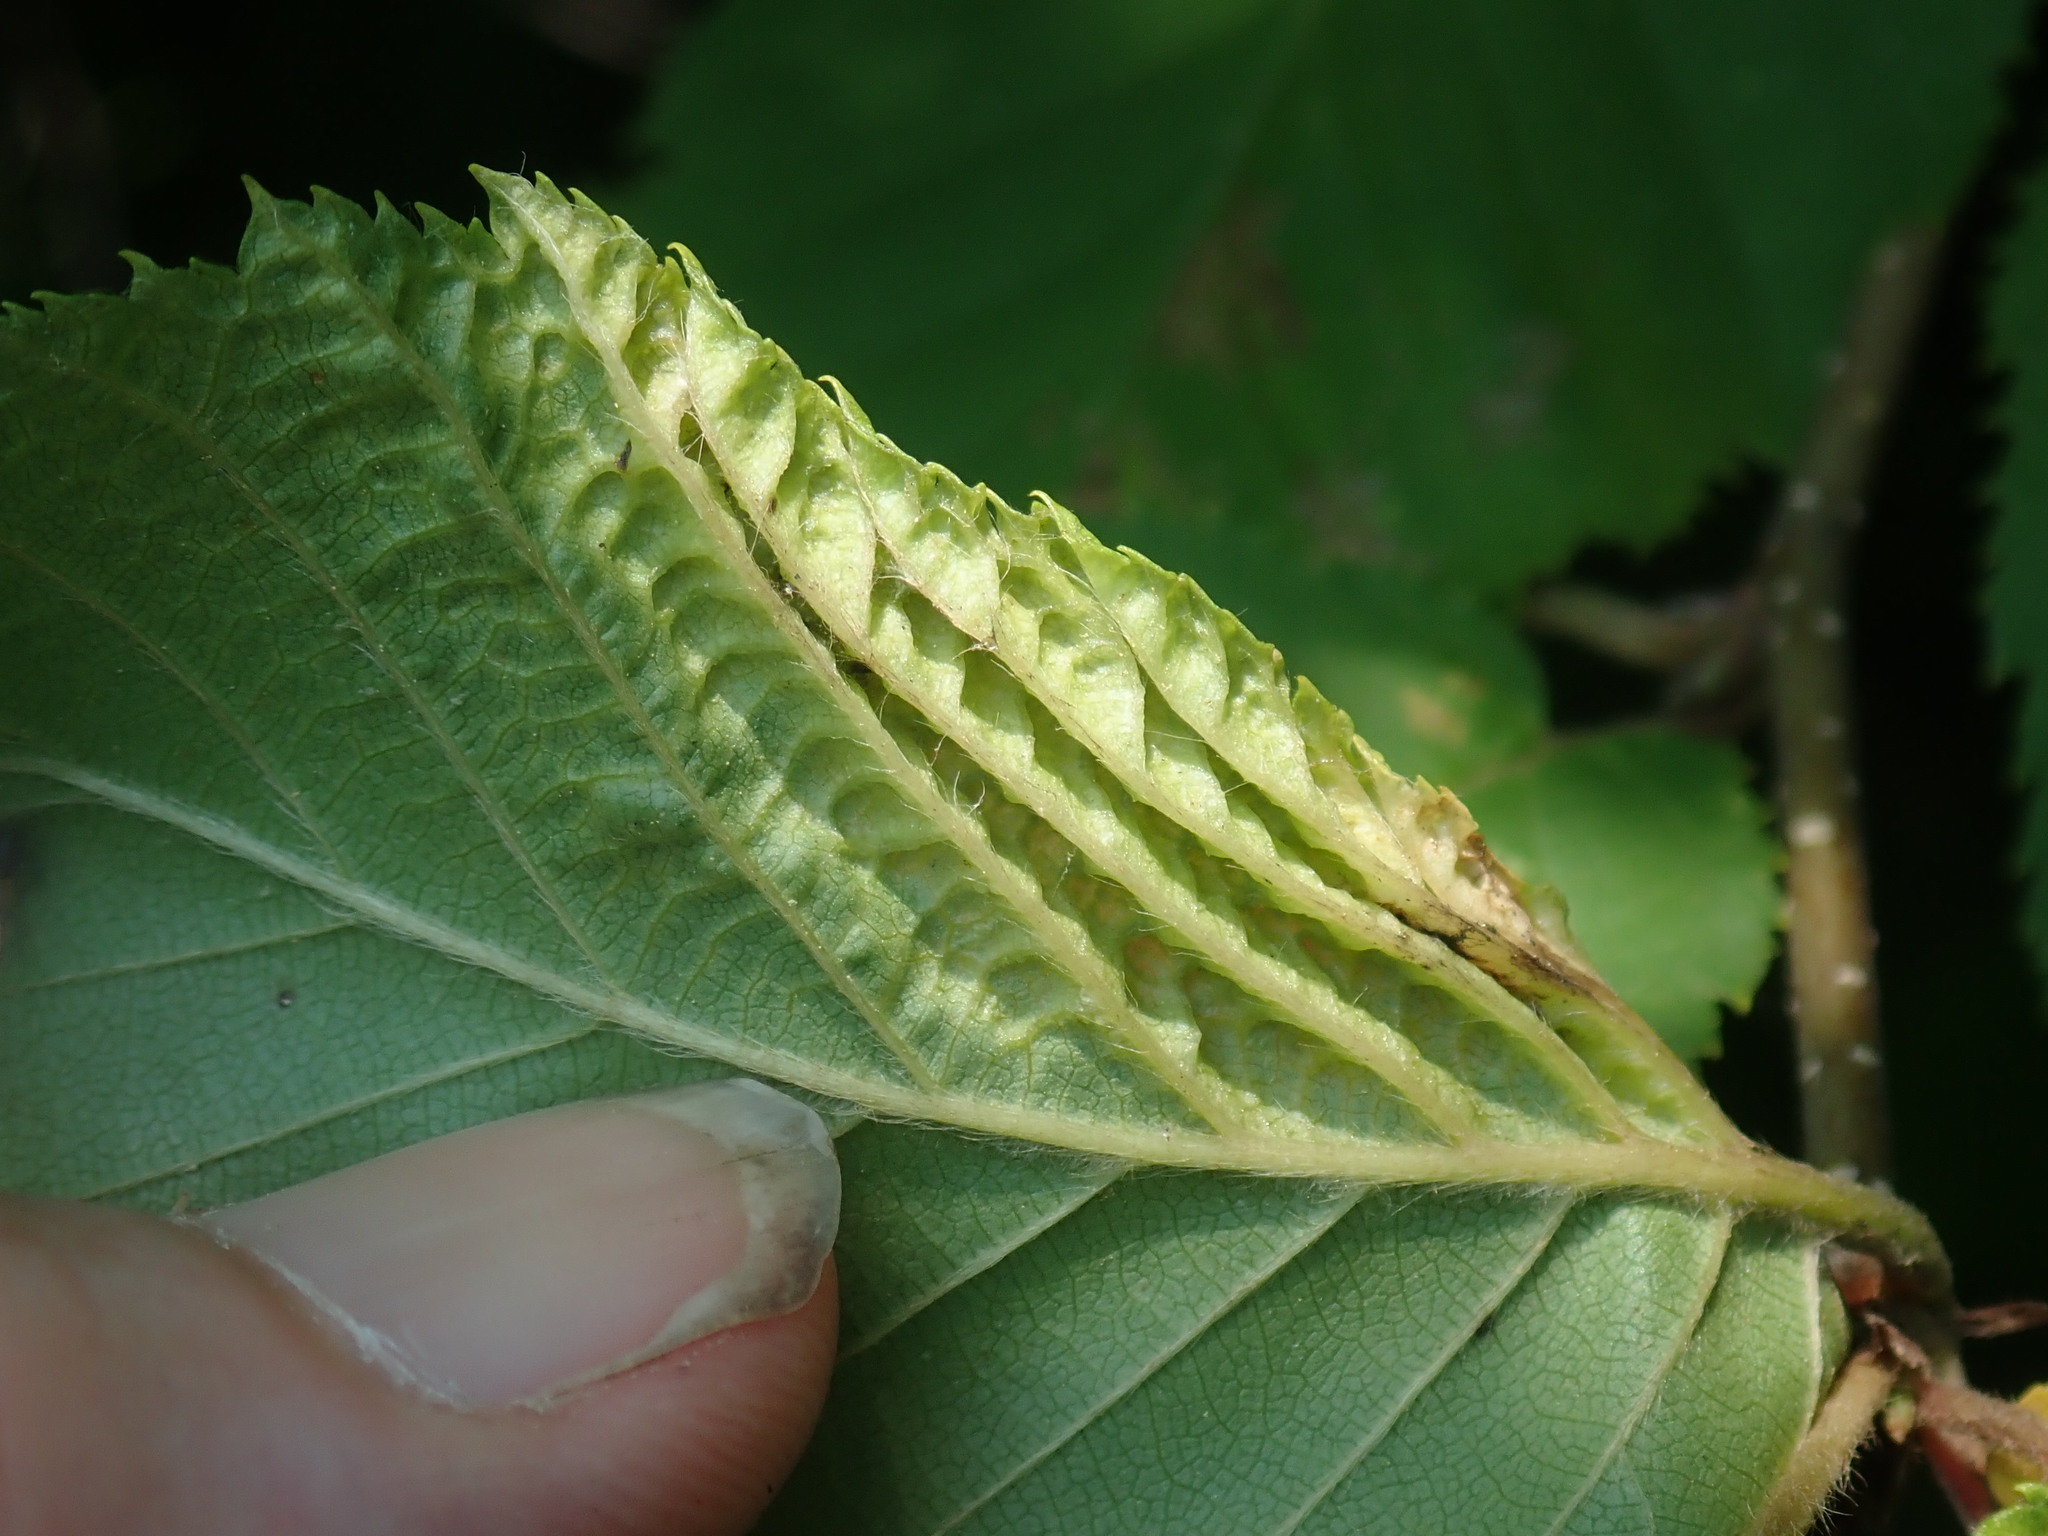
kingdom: Animalia
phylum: Arthropoda
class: Insecta
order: Hemiptera
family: Aphididae
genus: Hamamelistes
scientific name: Hamamelistes spinosus
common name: Witch hazel gall aphid
